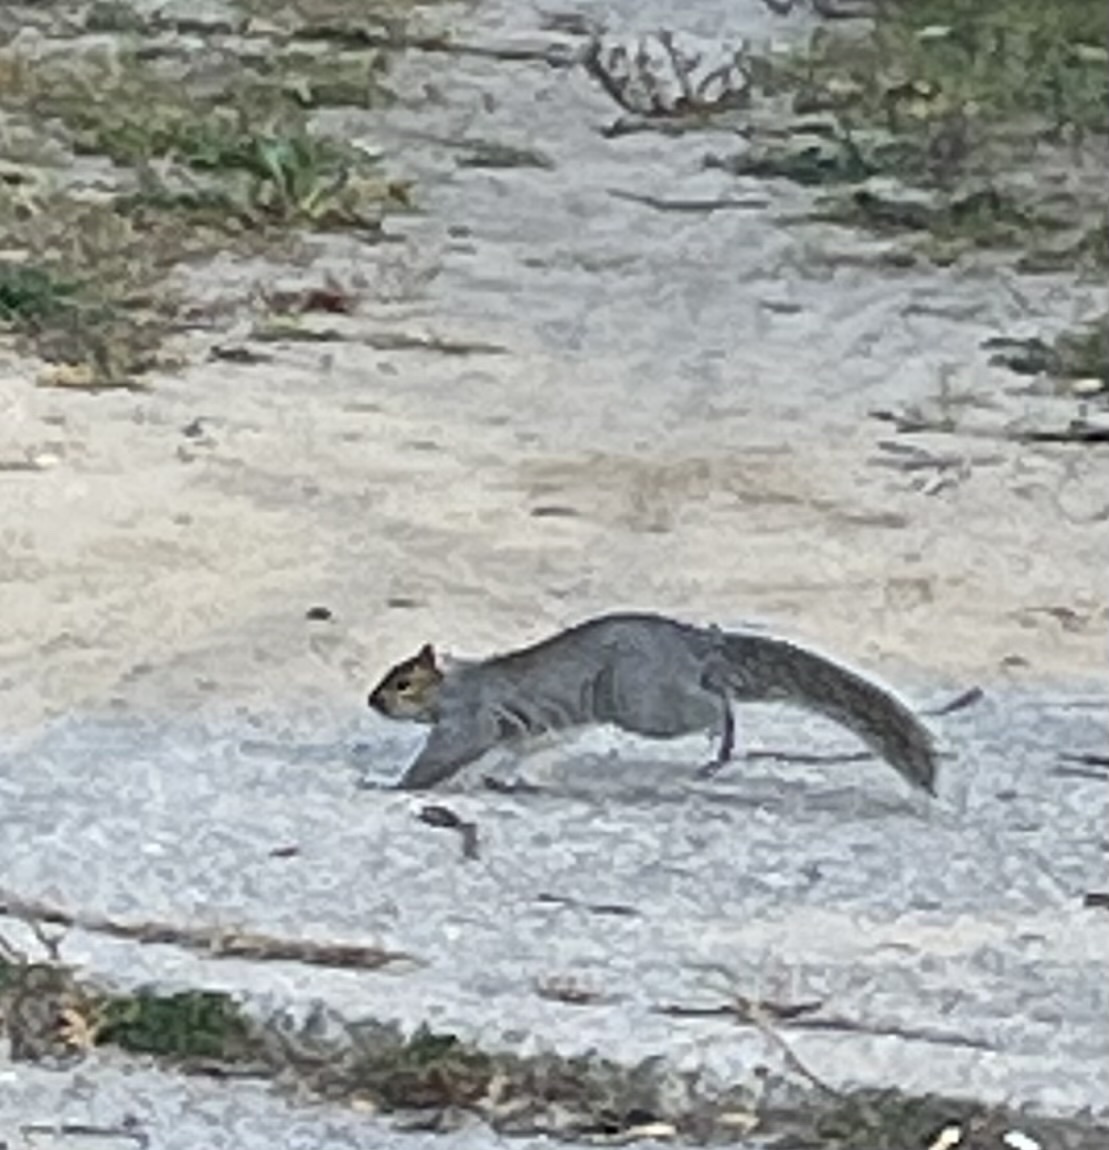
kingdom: Animalia
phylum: Chordata
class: Mammalia
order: Rodentia
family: Sciuridae
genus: Sciurus
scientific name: Sciurus carolinensis
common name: Eastern gray squirrel
